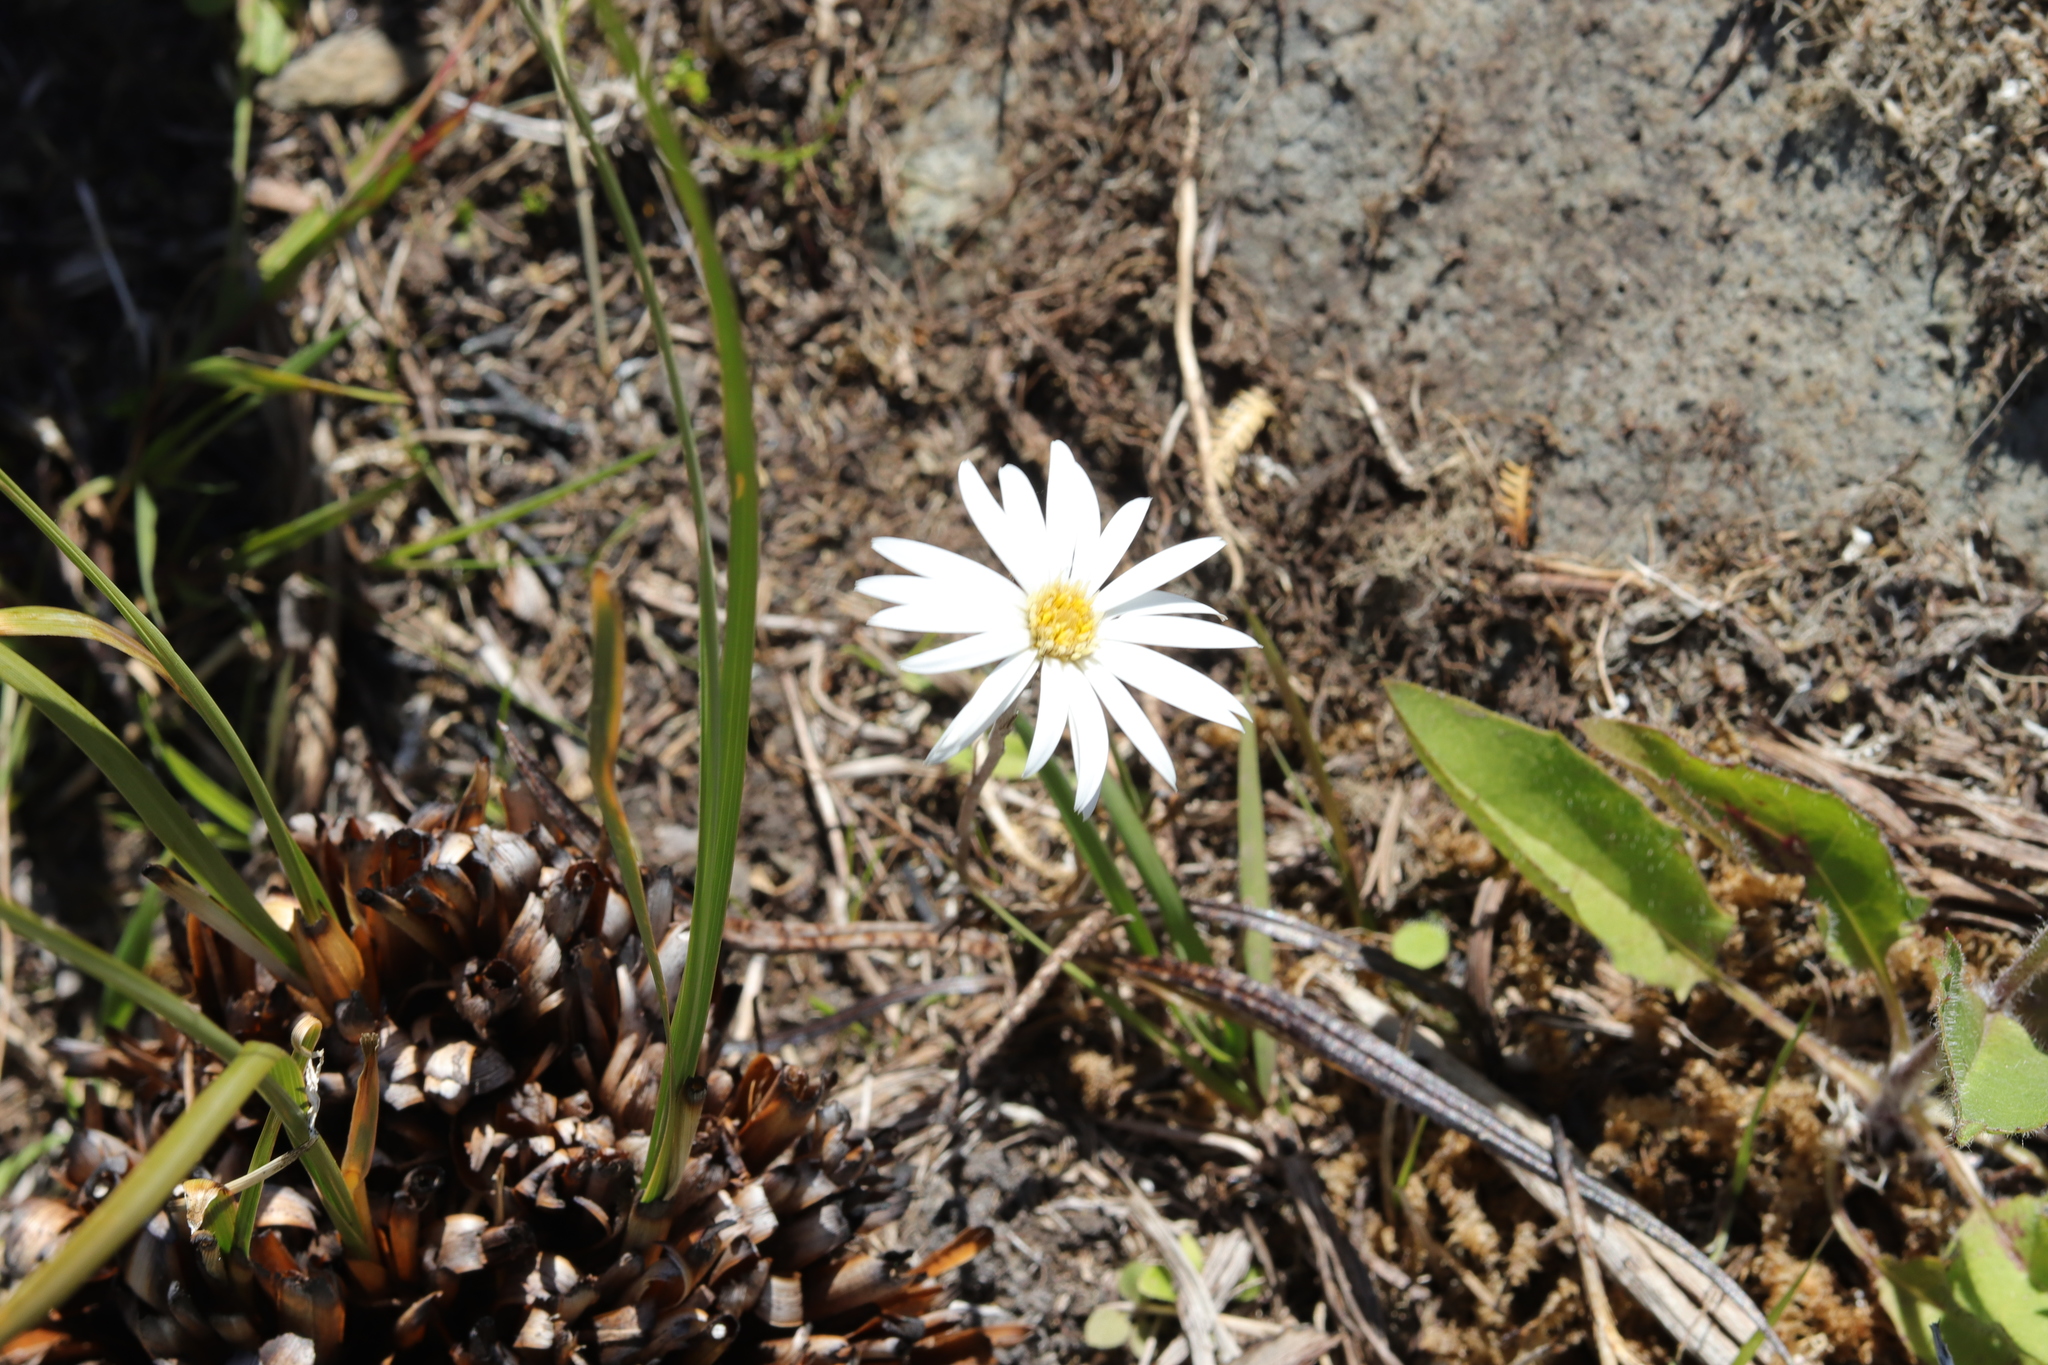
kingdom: Plantae
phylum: Tracheophyta
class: Magnoliopsida
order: Asterales
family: Asteraceae
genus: Celmisia
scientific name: Celmisia gracilenta
